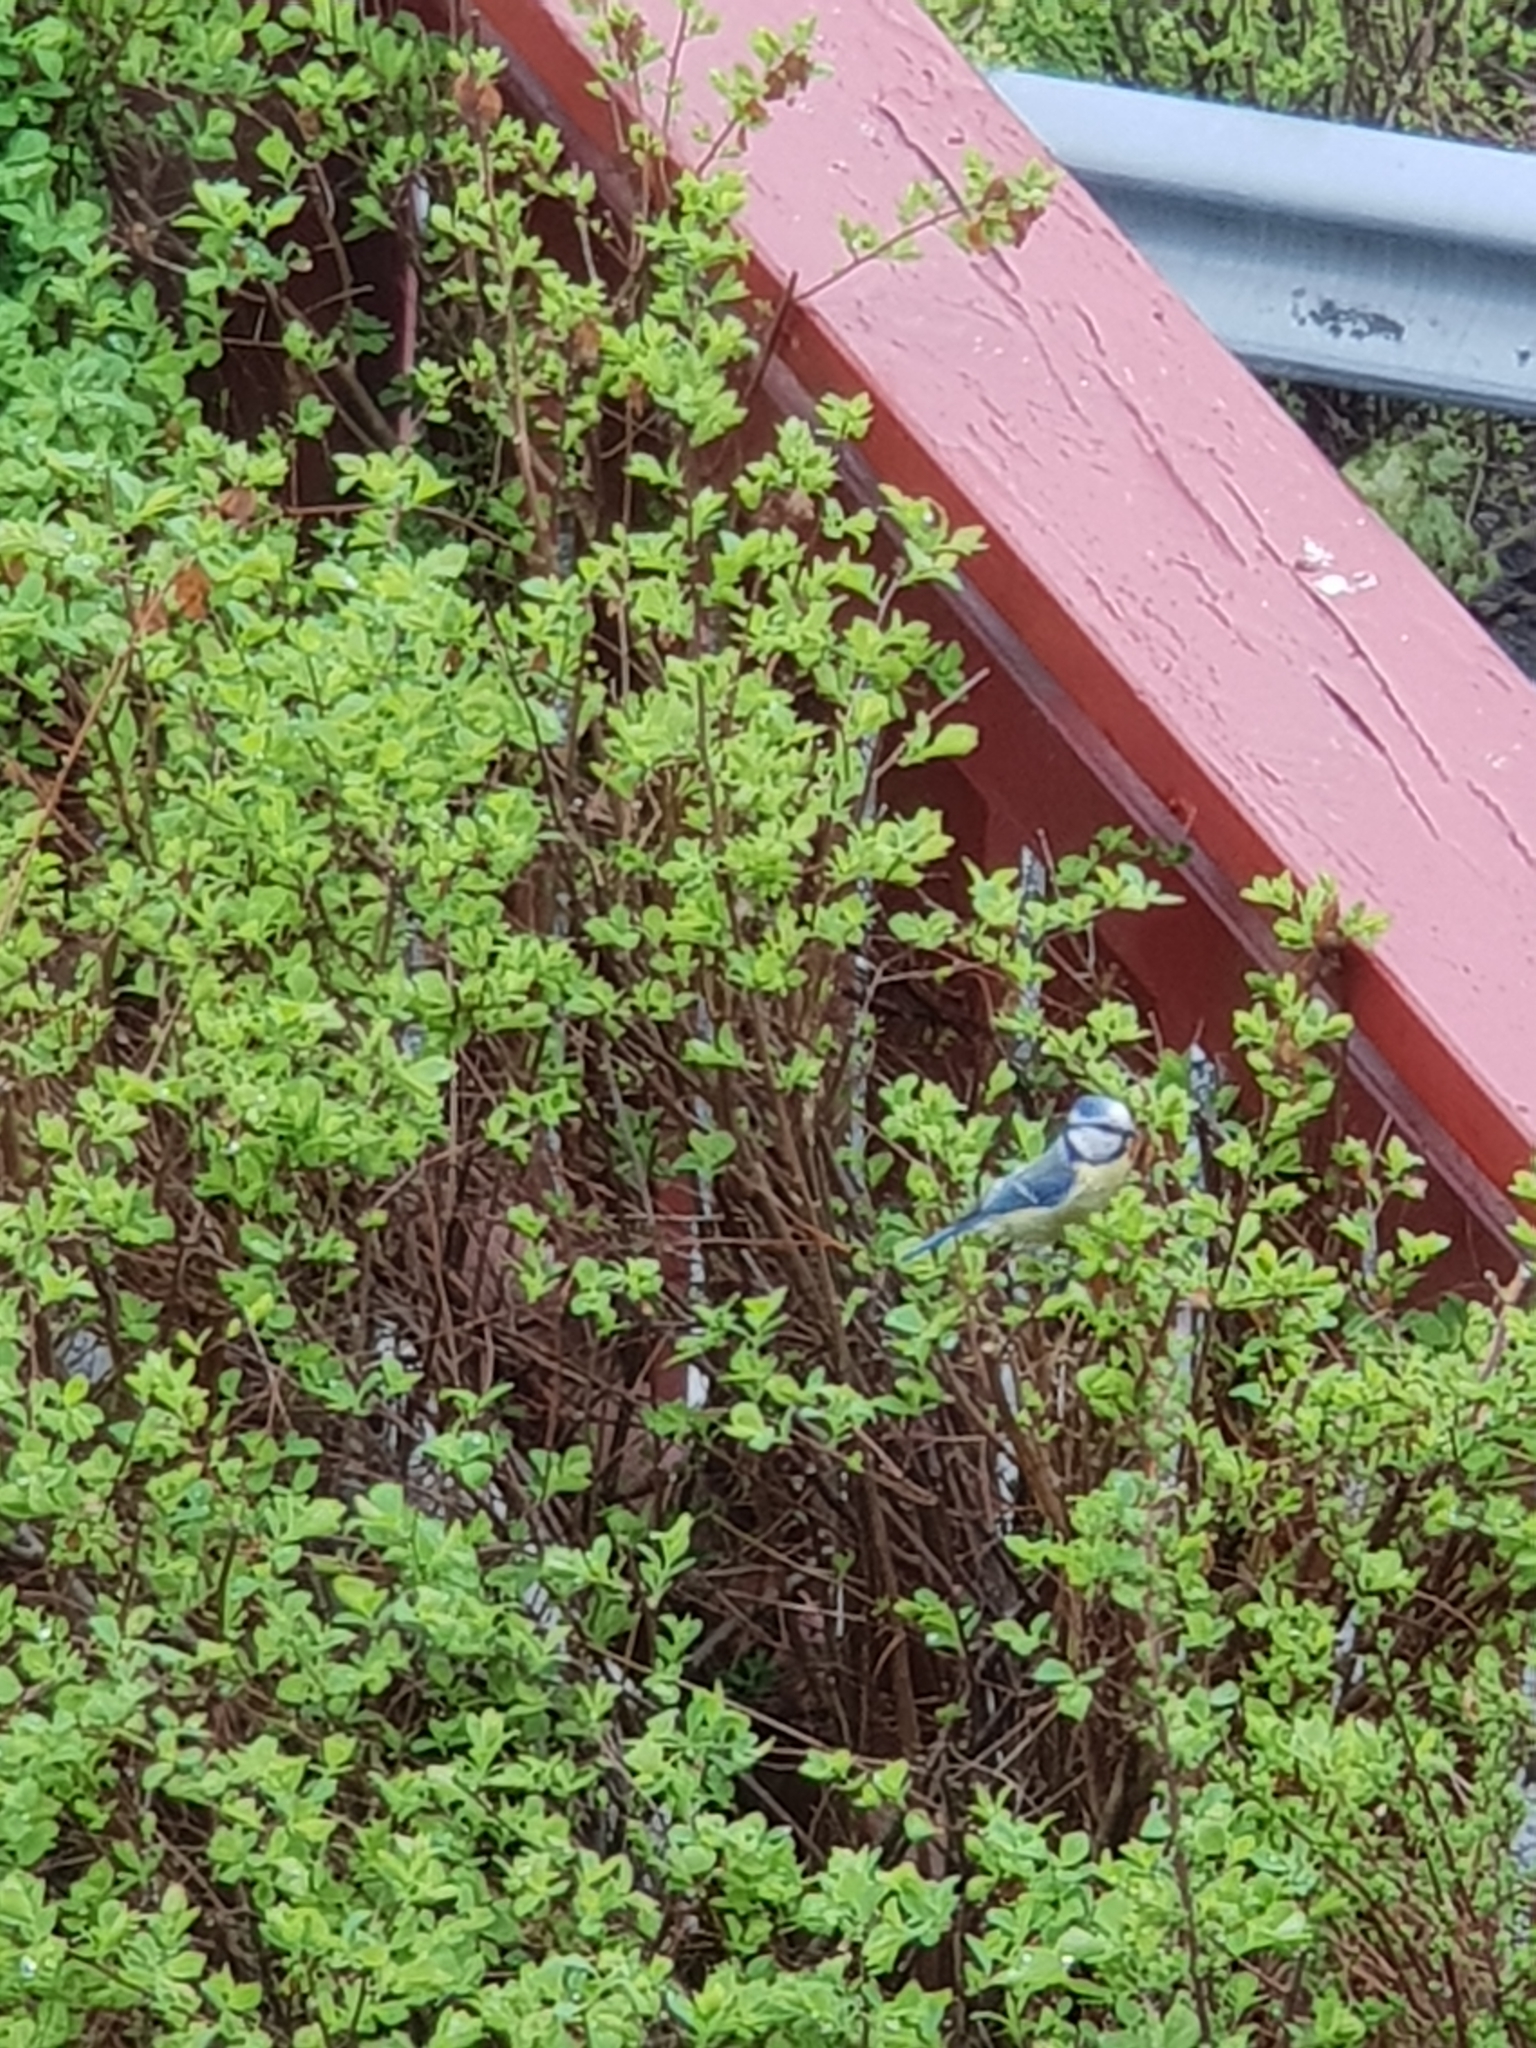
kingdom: Animalia
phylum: Chordata
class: Aves
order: Passeriformes
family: Paridae
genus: Cyanistes
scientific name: Cyanistes caeruleus
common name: Eurasian blue tit
